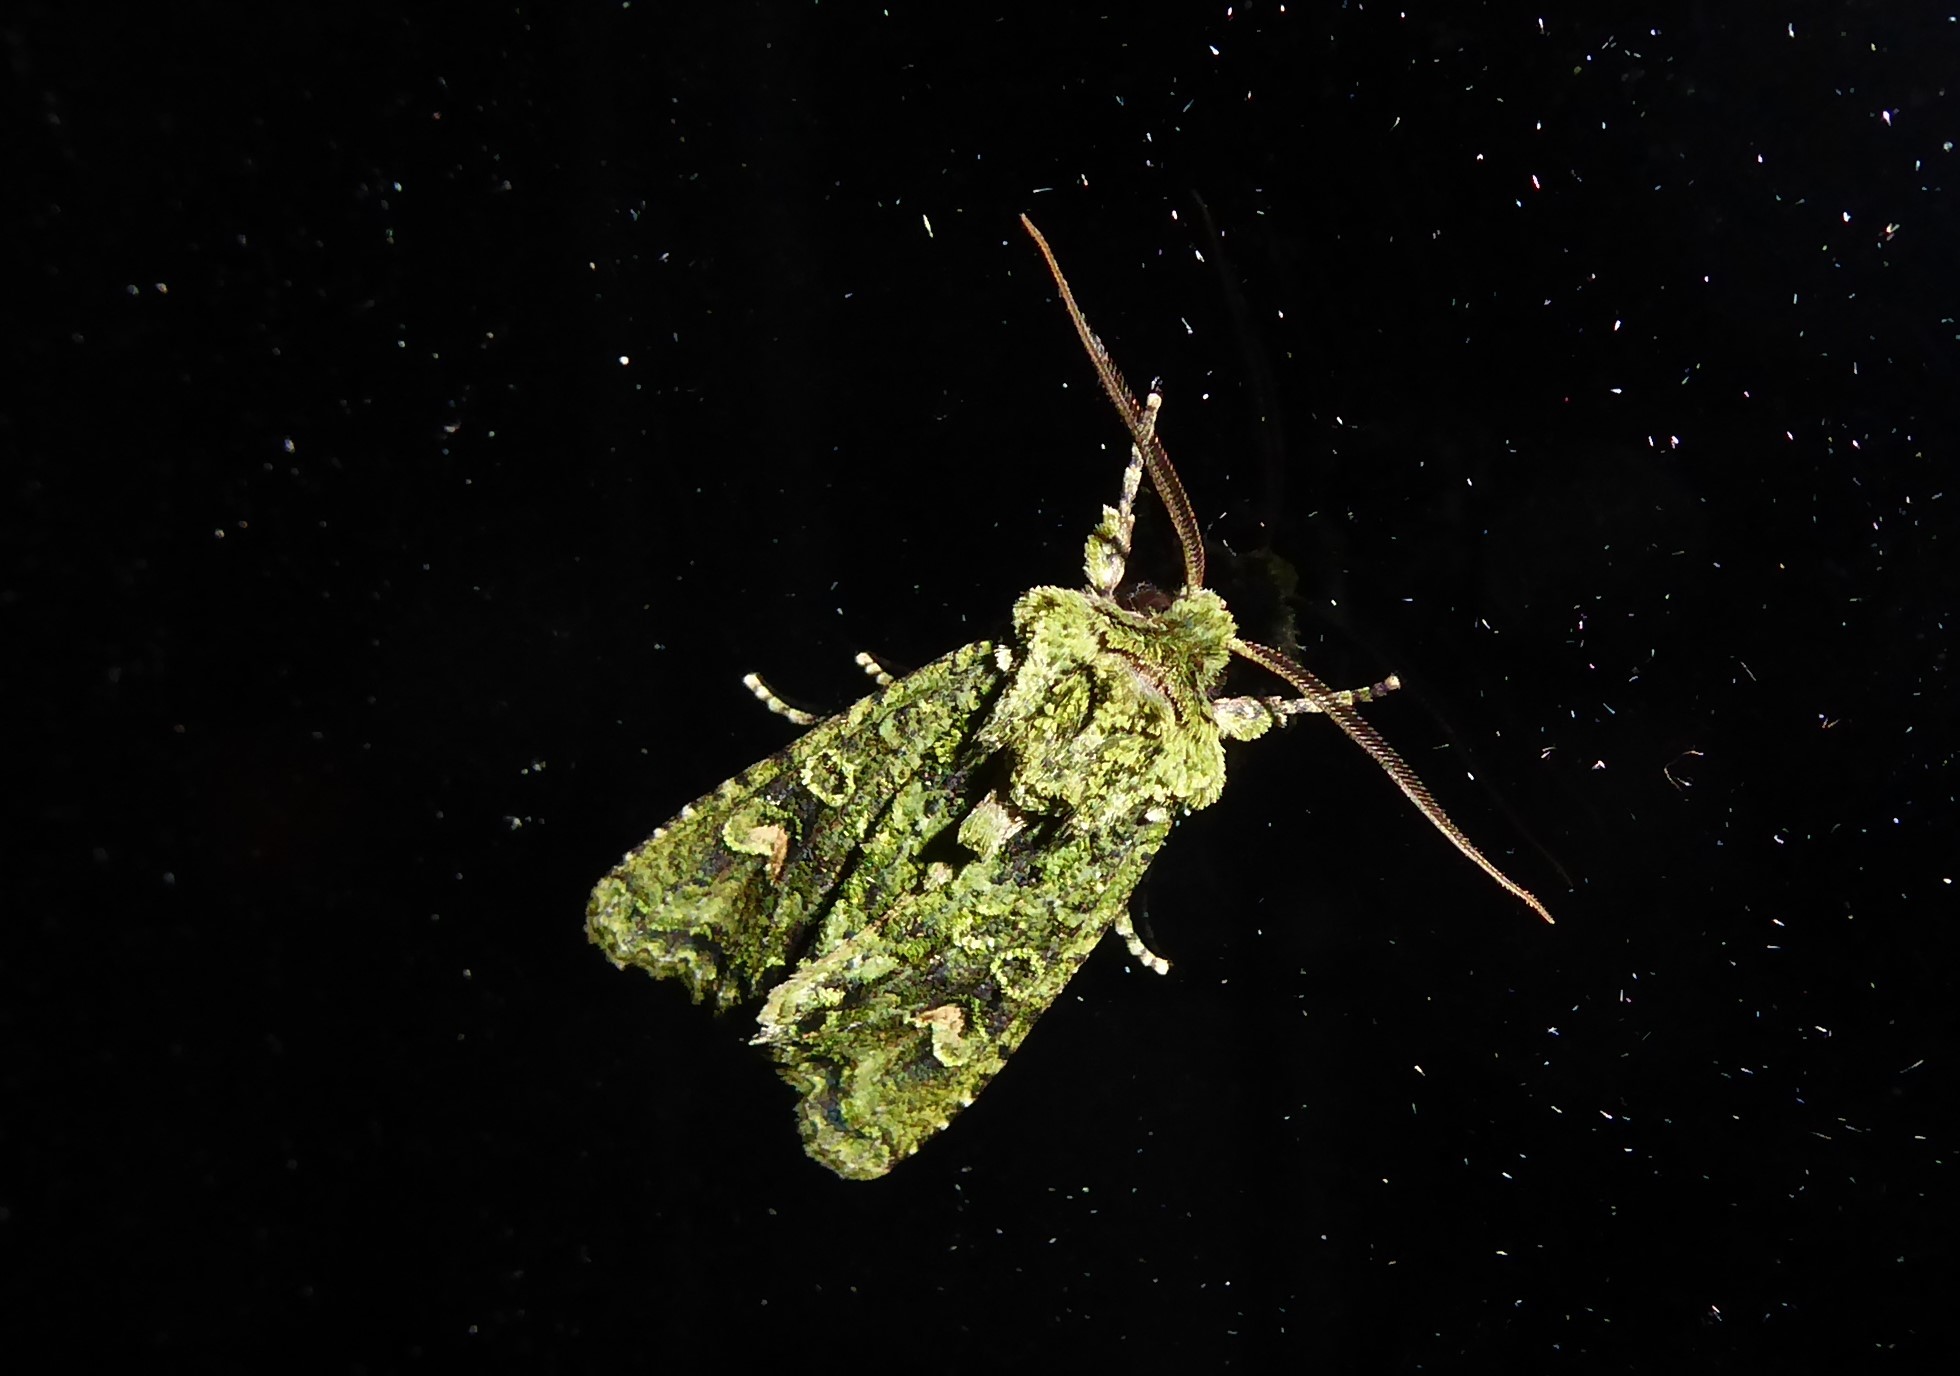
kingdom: Animalia
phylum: Arthropoda
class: Insecta
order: Lepidoptera
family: Noctuidae
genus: Ichneutica
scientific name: Ichneutica
